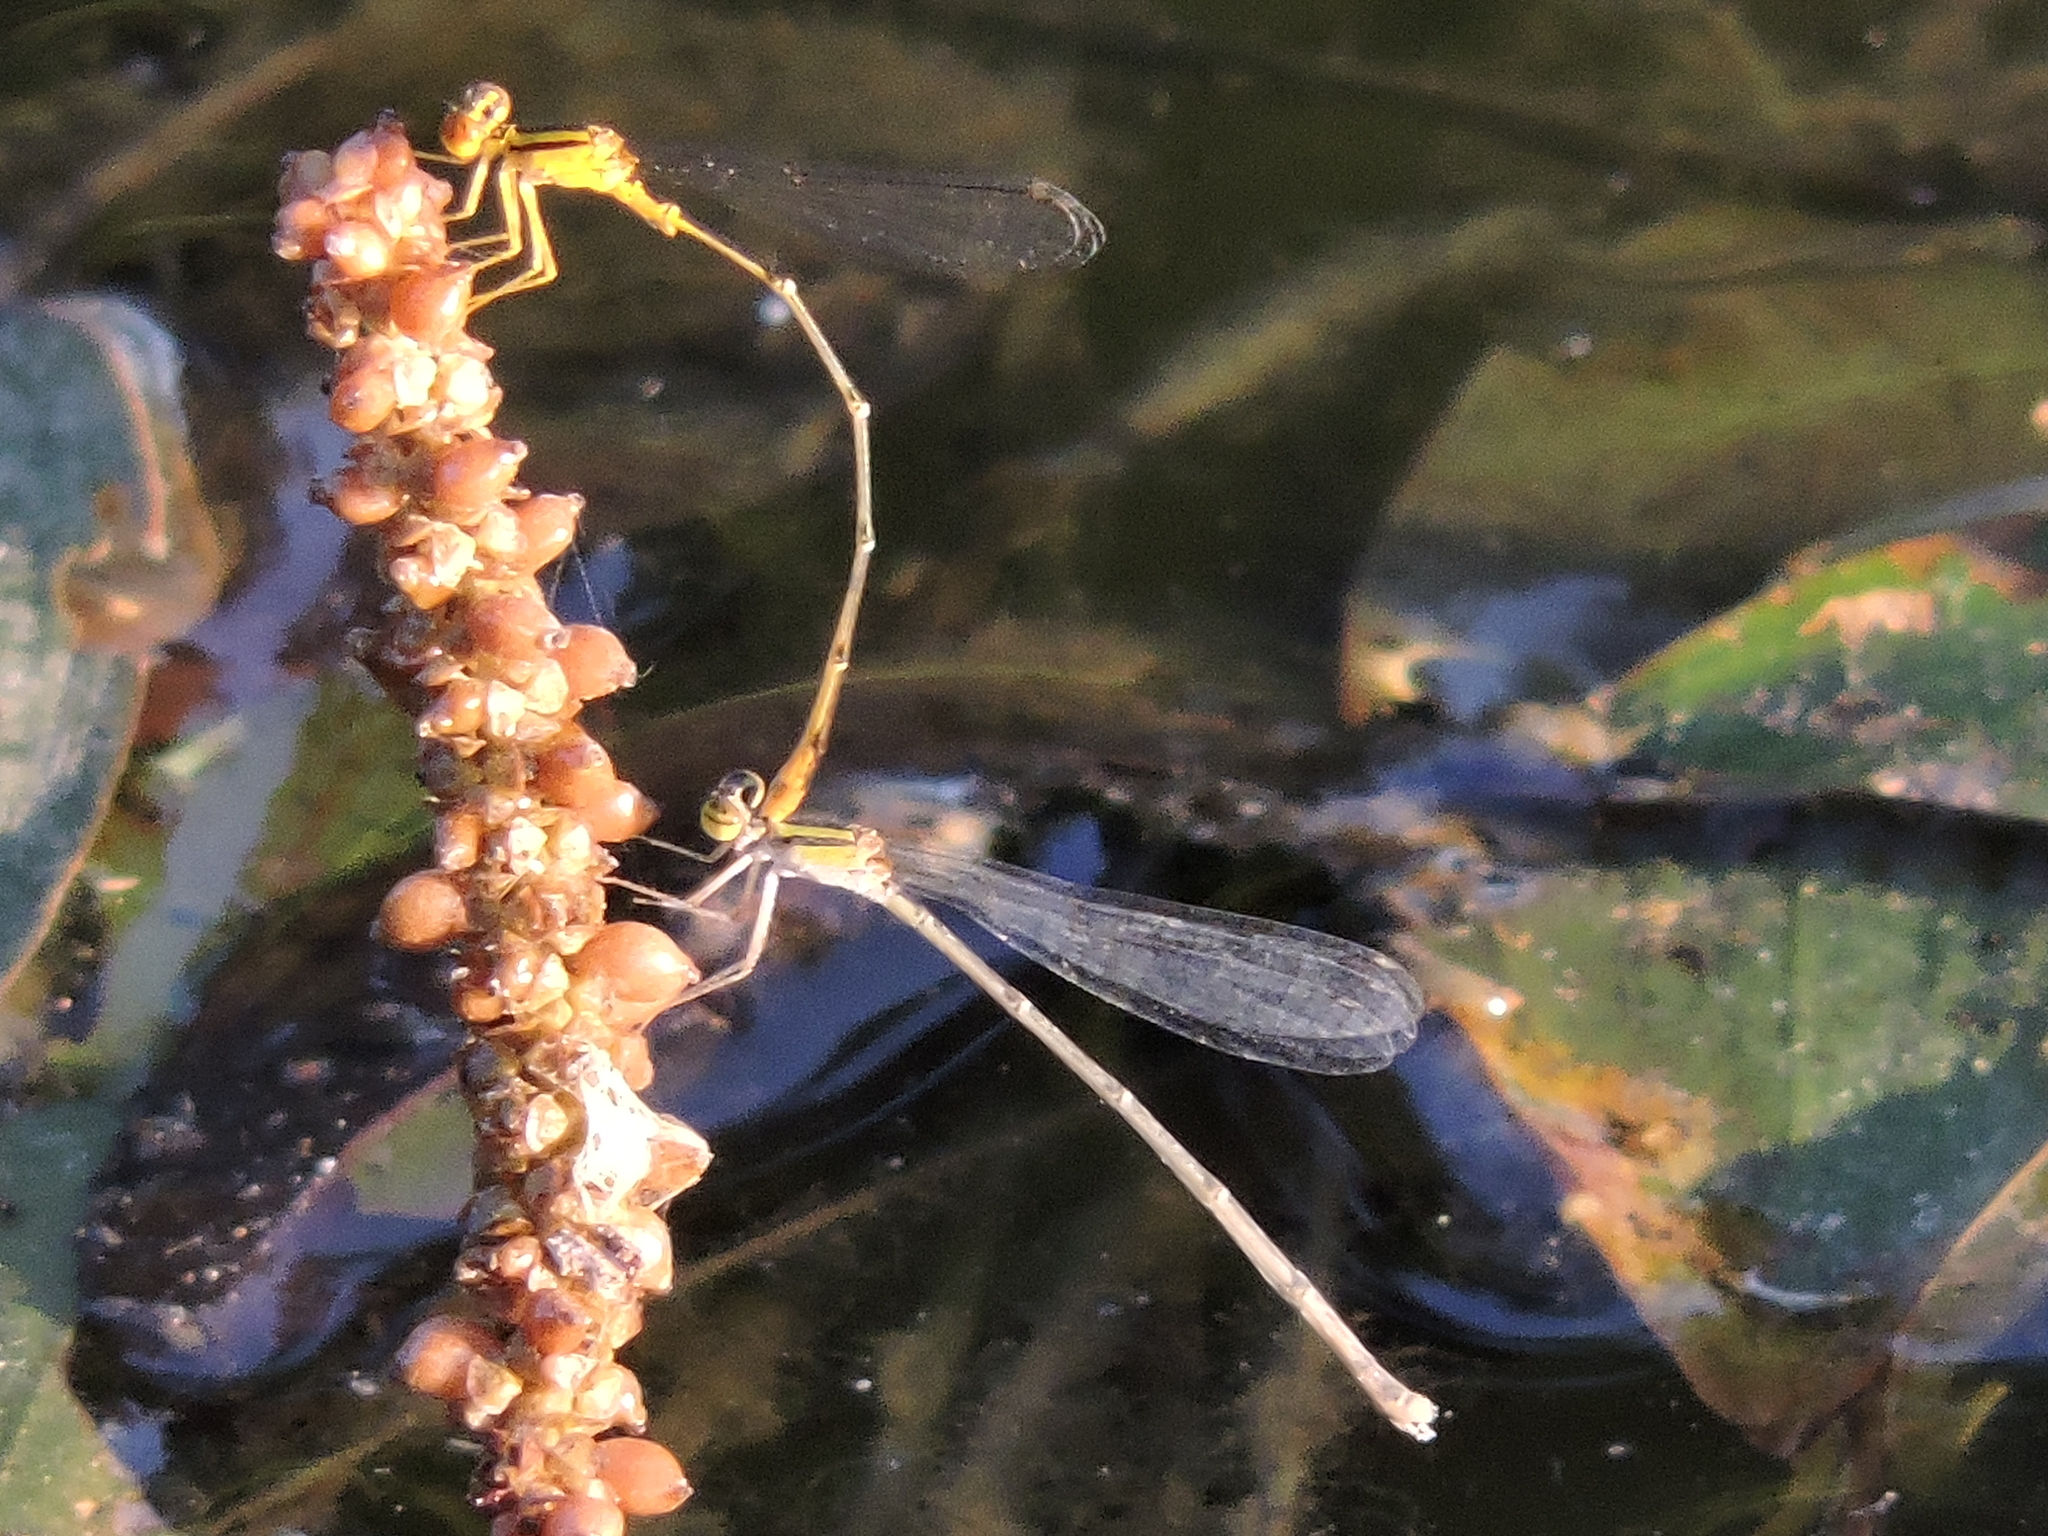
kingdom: Animalia
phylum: Arthropoda
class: Insecta
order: Odonata
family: Coenagrionidae
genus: Enallagma
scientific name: Enallagma signatum
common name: Orange bluet
